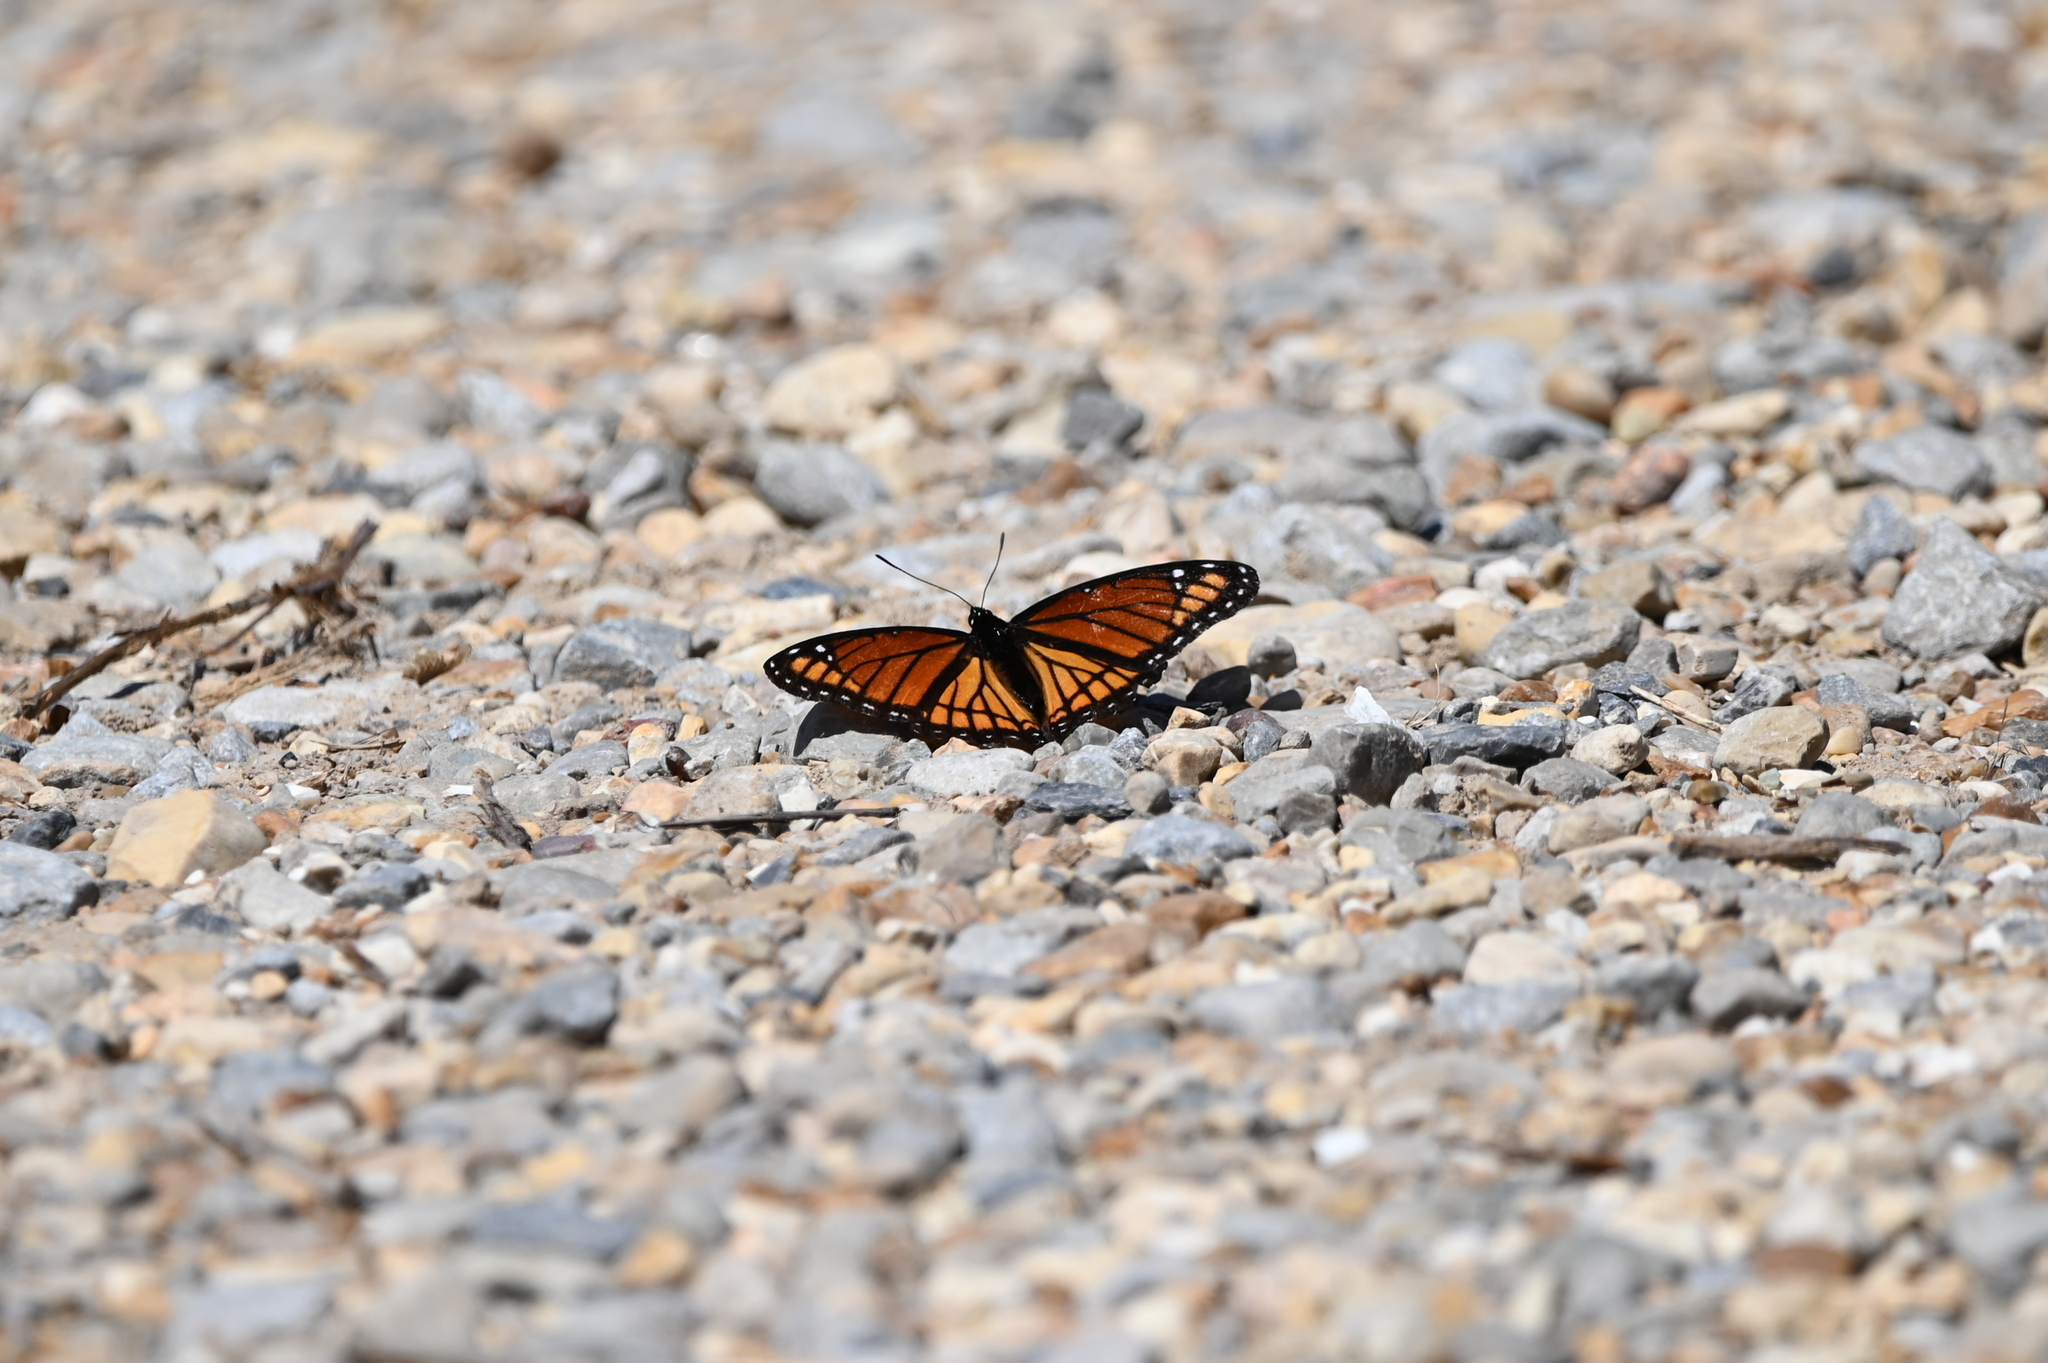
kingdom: Animalia
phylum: Arthropoda
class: Insecta
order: Lepidoptera
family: Nymphalidae
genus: Limenitis
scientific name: Limenitis archippus
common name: Viceroy
